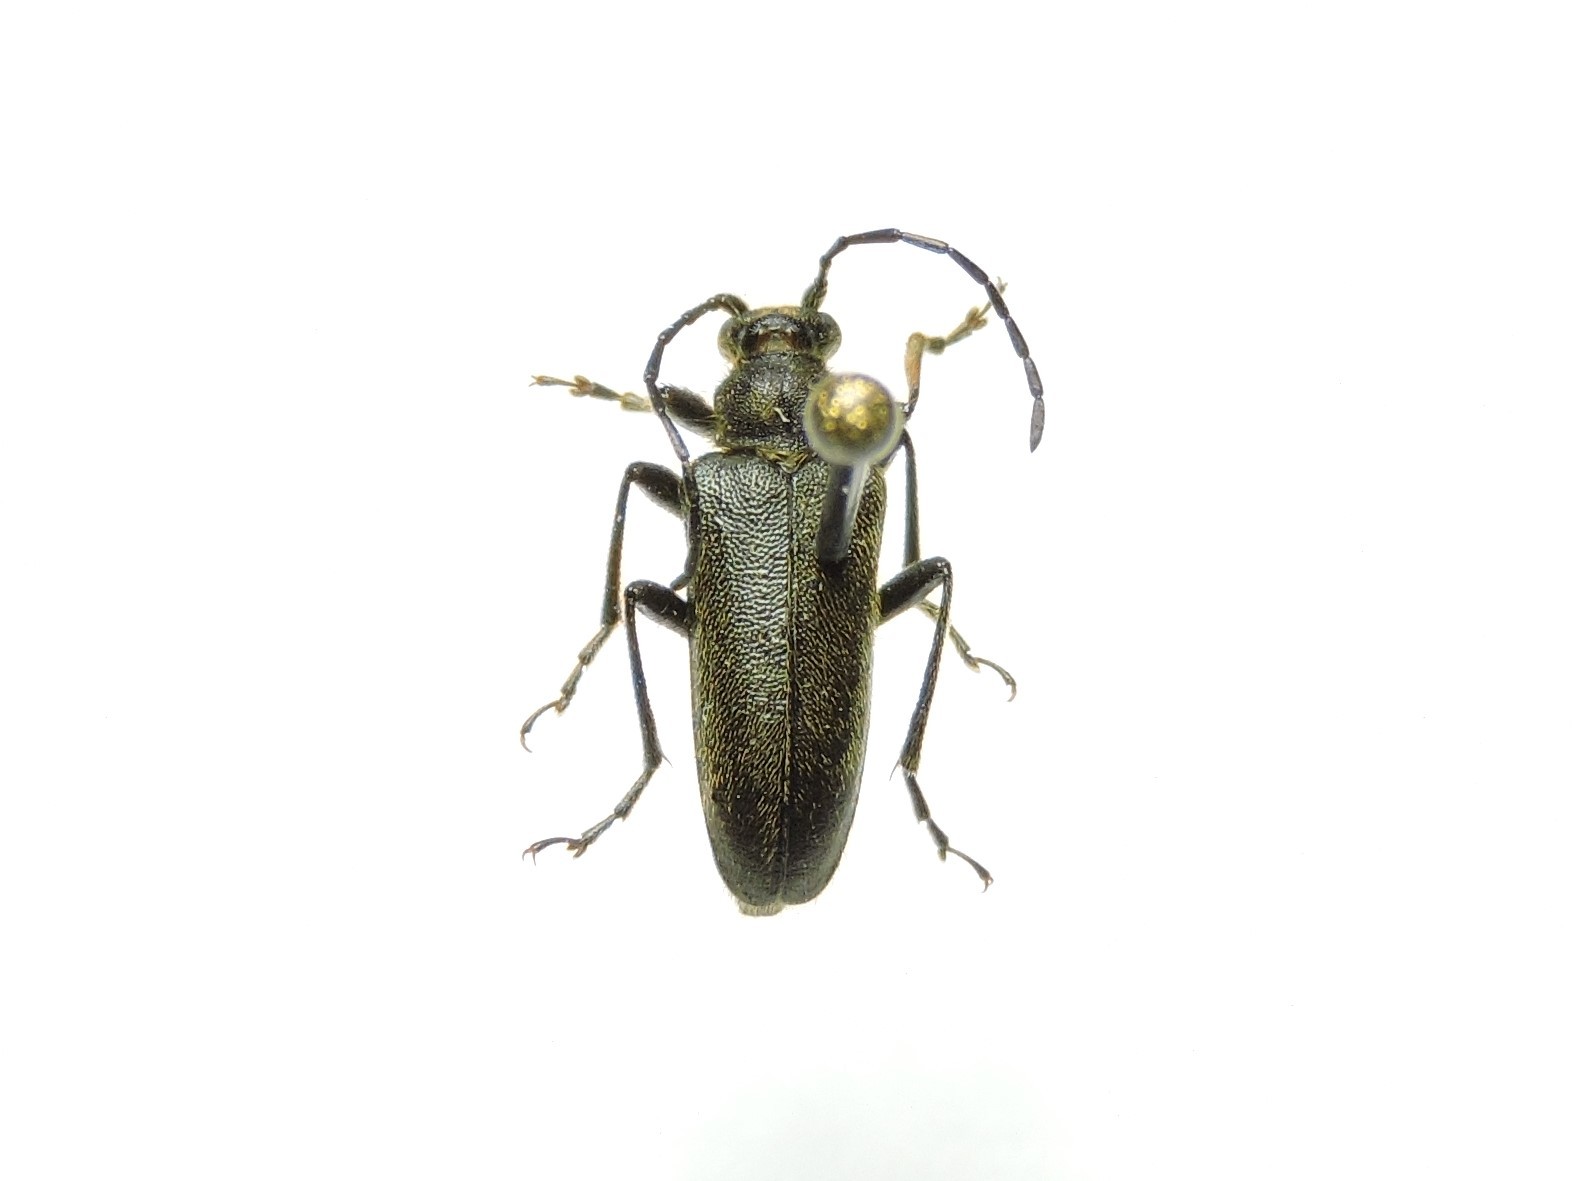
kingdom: Animalia
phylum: Arthropoda
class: Insecta
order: Coleoptera
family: Cerambycidae
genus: Cortodera
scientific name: Cortodera alpina
